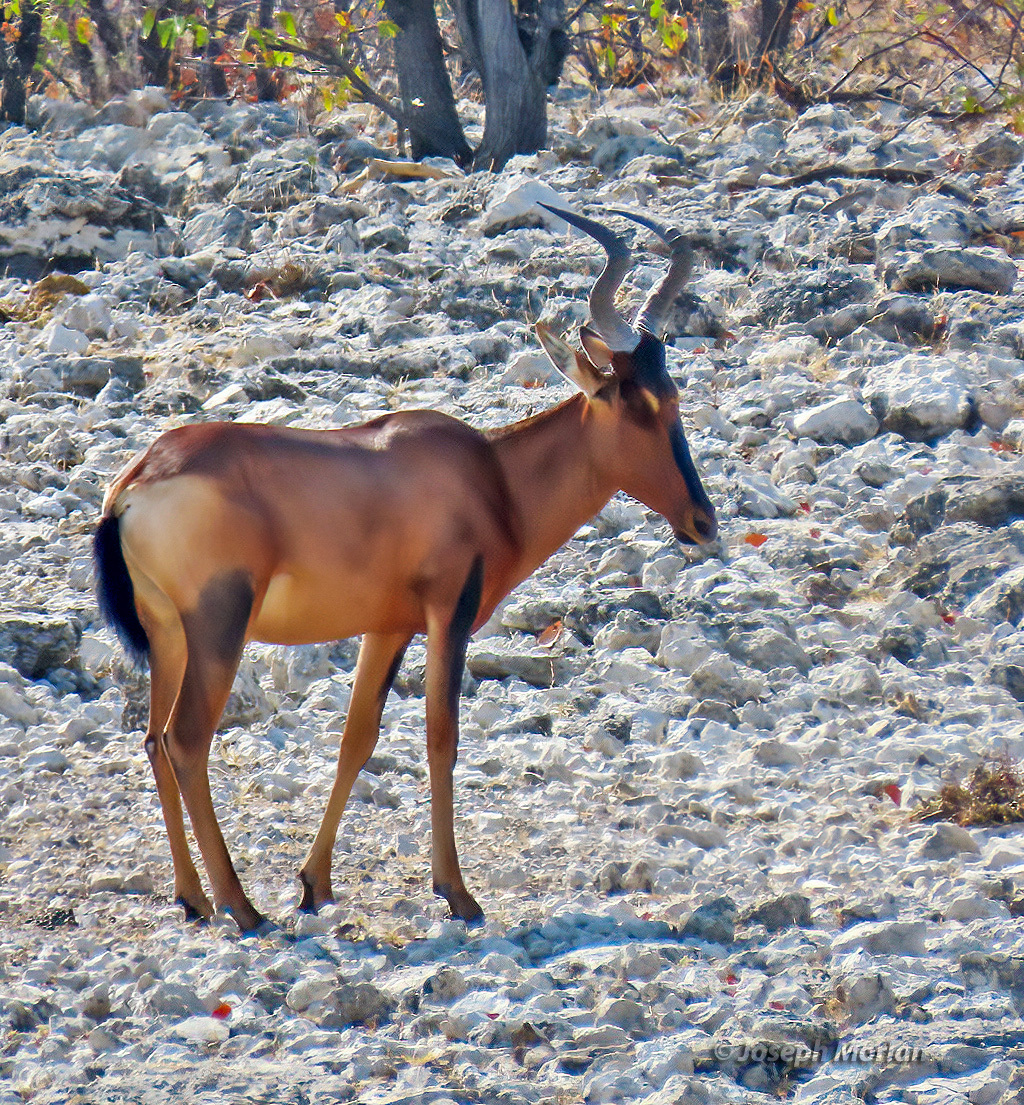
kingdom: Animalia
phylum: Chordata
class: Mammalia
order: Artiodactyla
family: Bovidae
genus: Alcelaphus
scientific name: Alcelaphus caama
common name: Red hartebeest
